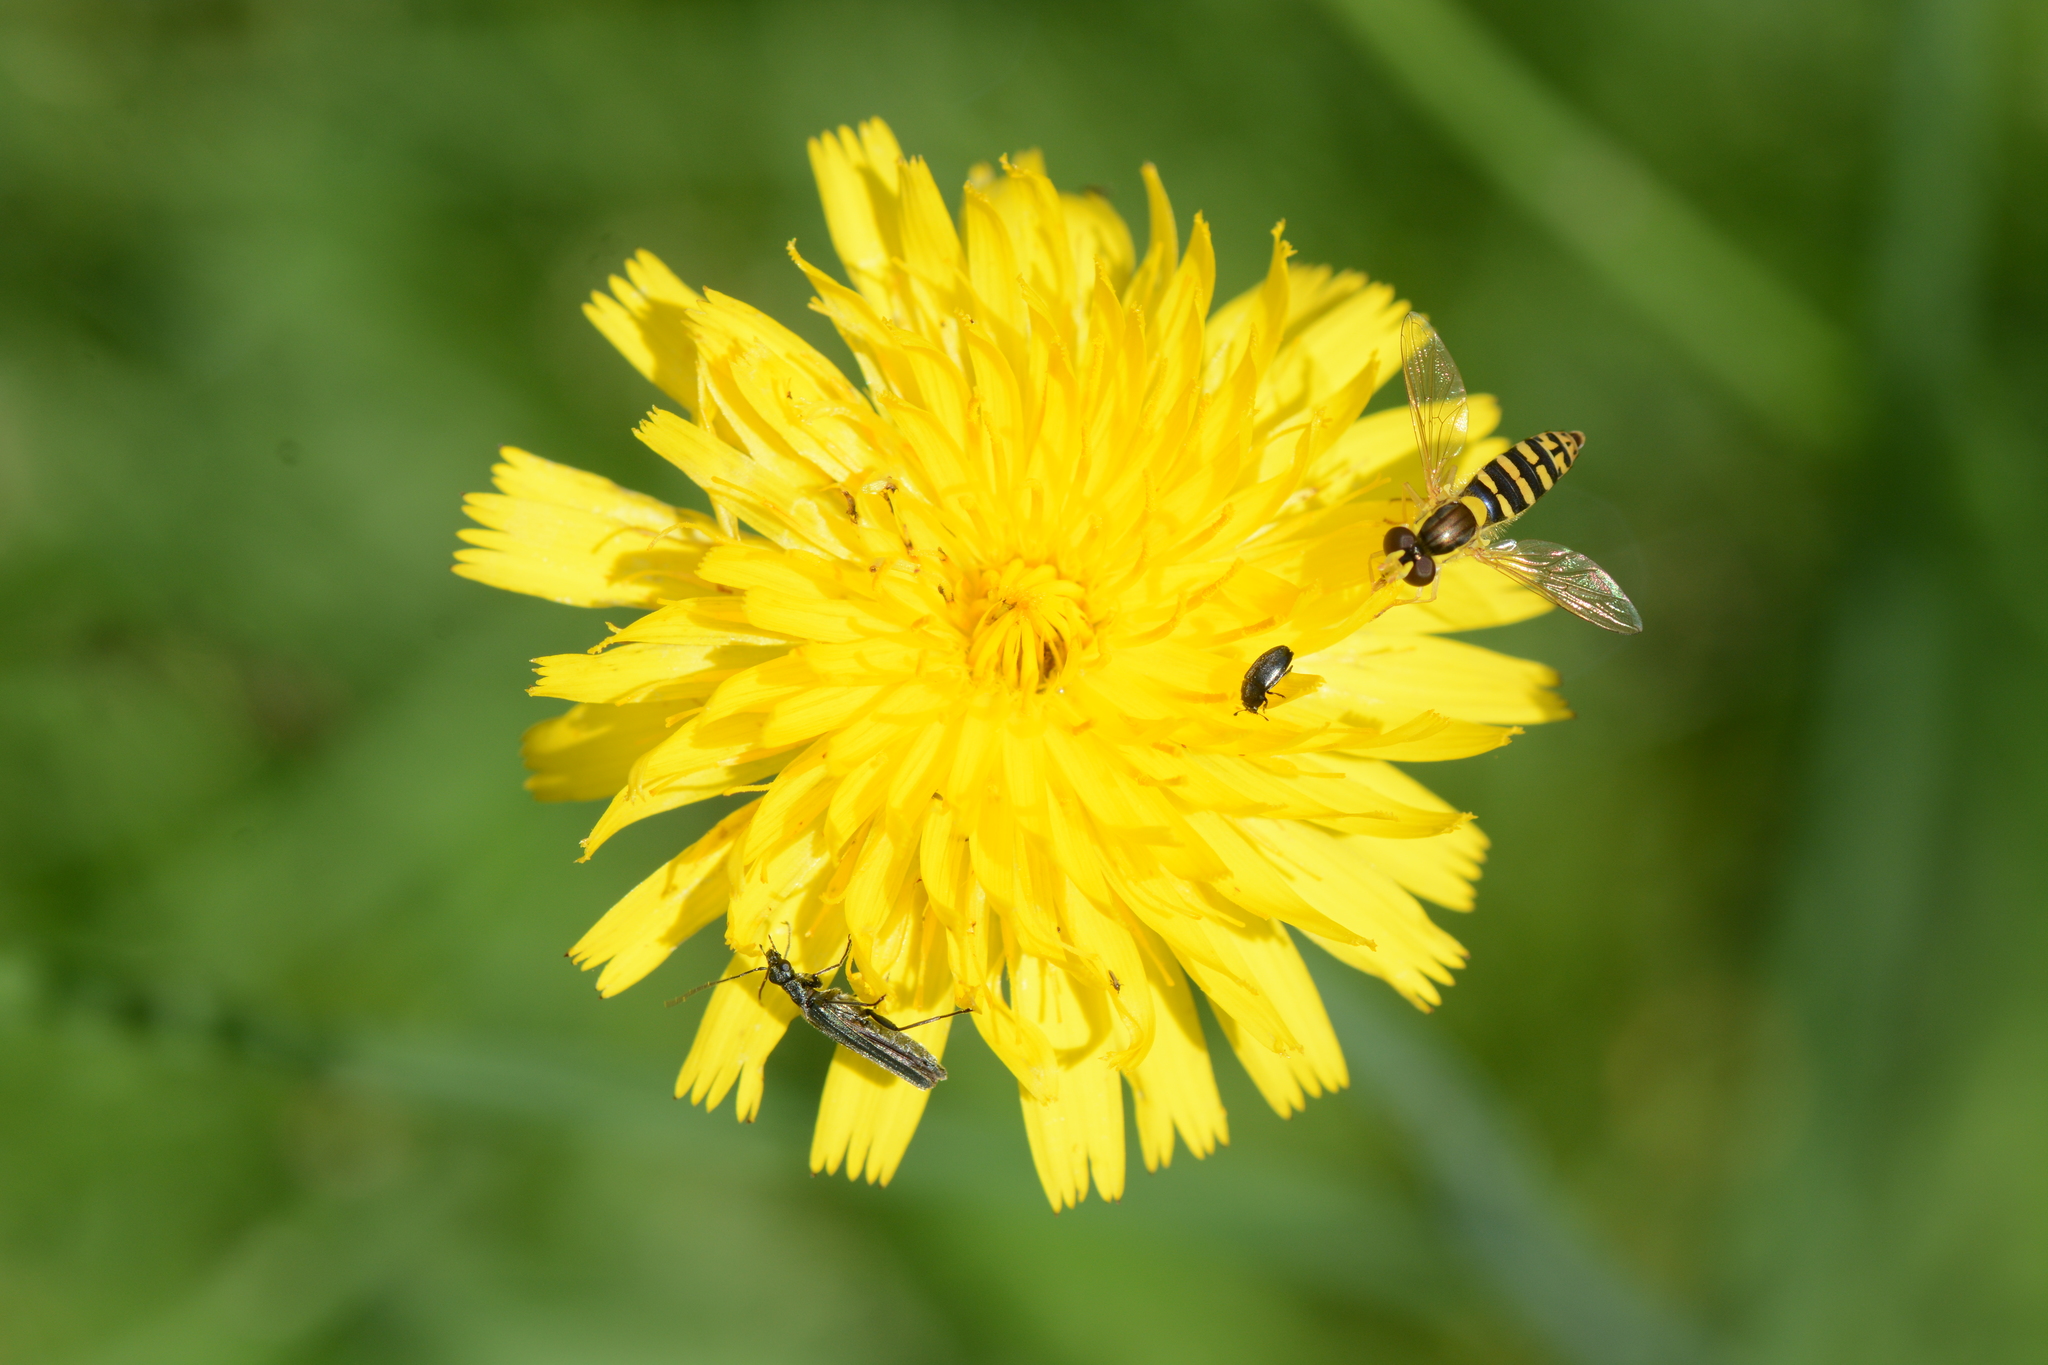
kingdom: Animalia
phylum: Arthropoda
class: Insecta
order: Diptera
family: Syrphidae
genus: Sphaerophoria
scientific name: Sphaerophoria
